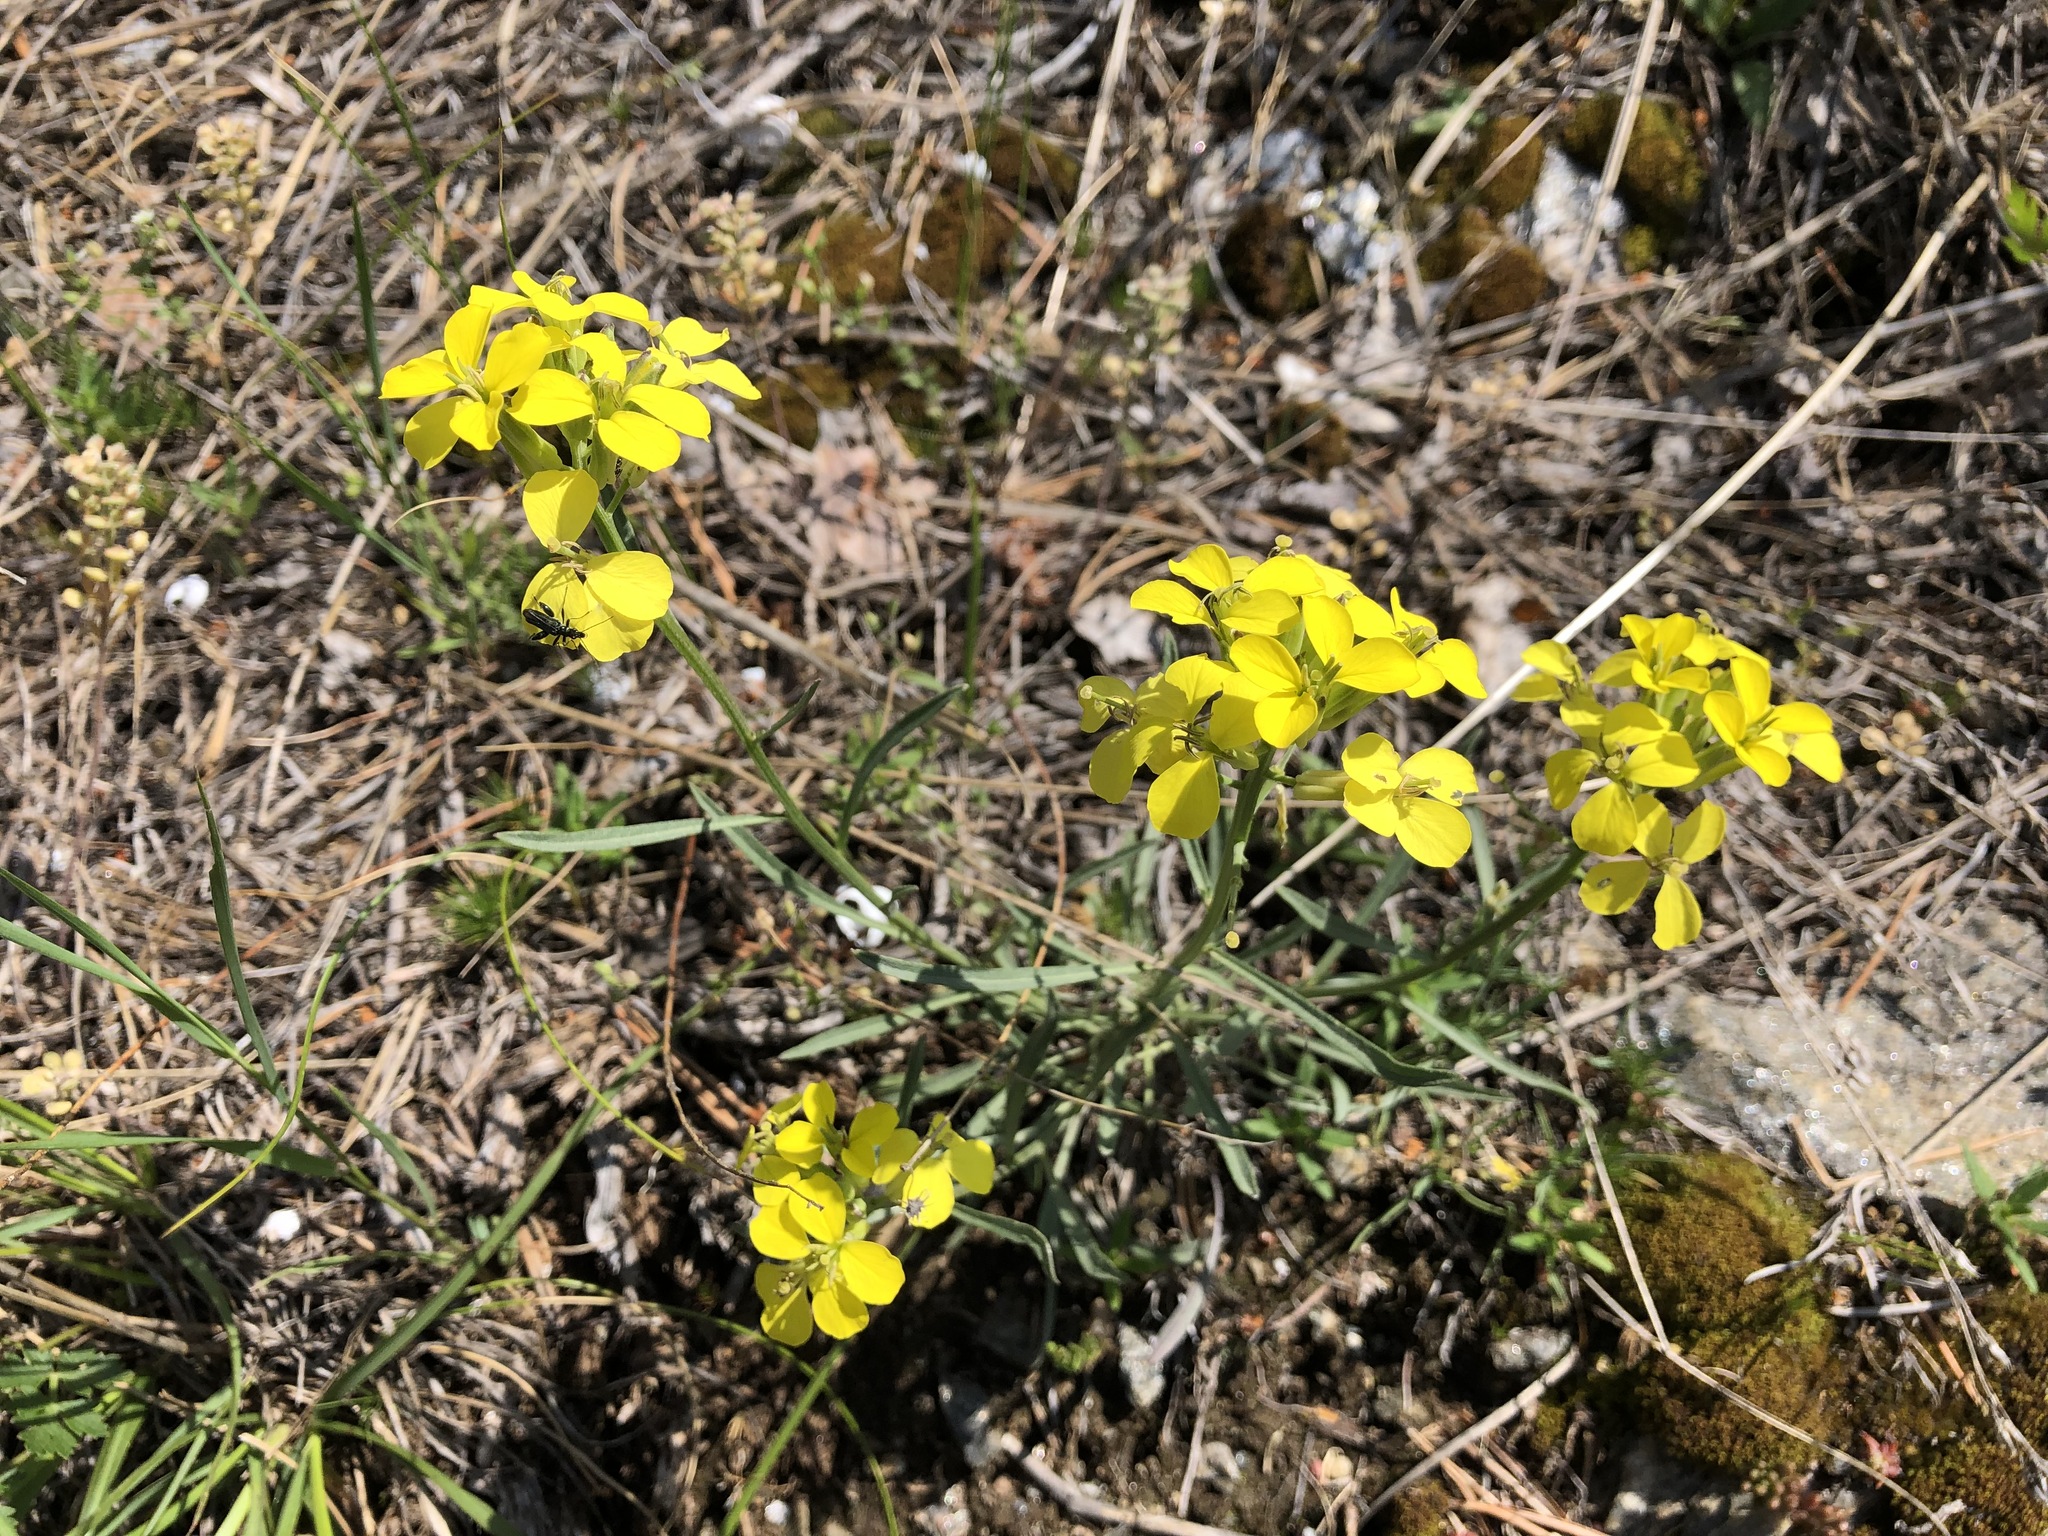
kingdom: Plantae
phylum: Tracheophyta
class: Magnoliopsida
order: Brassicales
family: Brassicaceae
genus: Erysimum
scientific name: Erysimum rhaeticum
